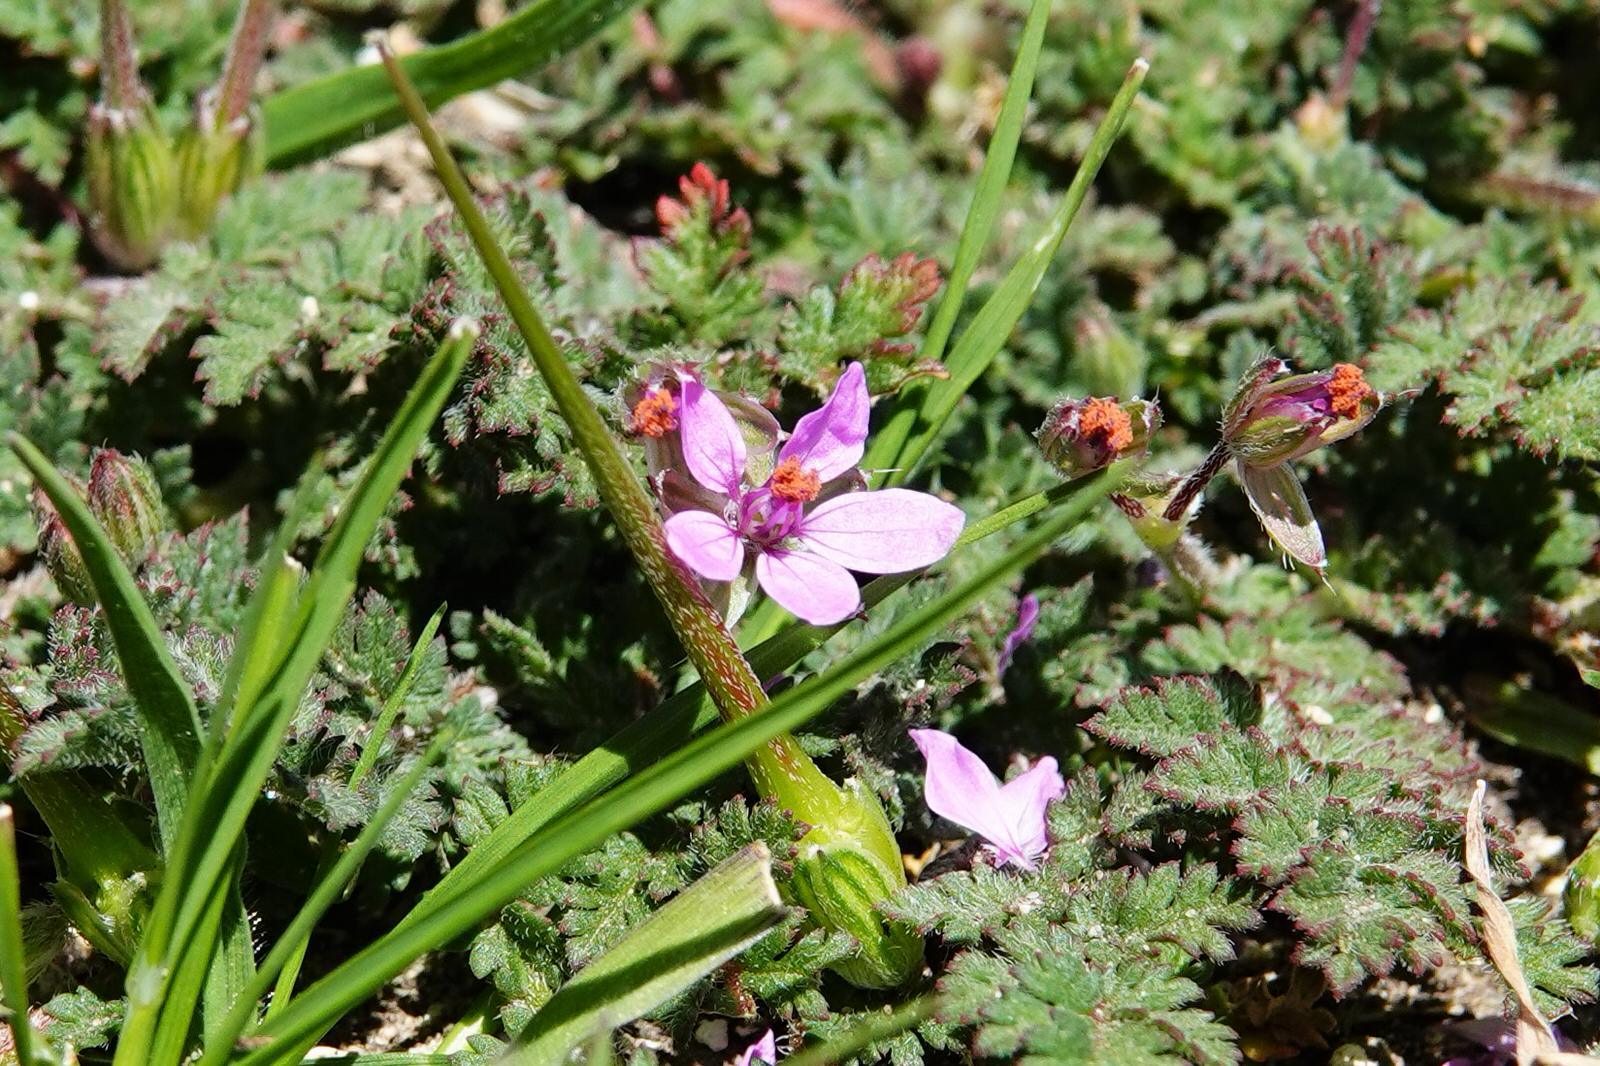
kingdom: Plantae
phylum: Tracheophyta
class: Magnoliopsida
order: Geraniales
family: Geraniaceae
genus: Erodium
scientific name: Erodium cicutarium
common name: Common stork's-bill
